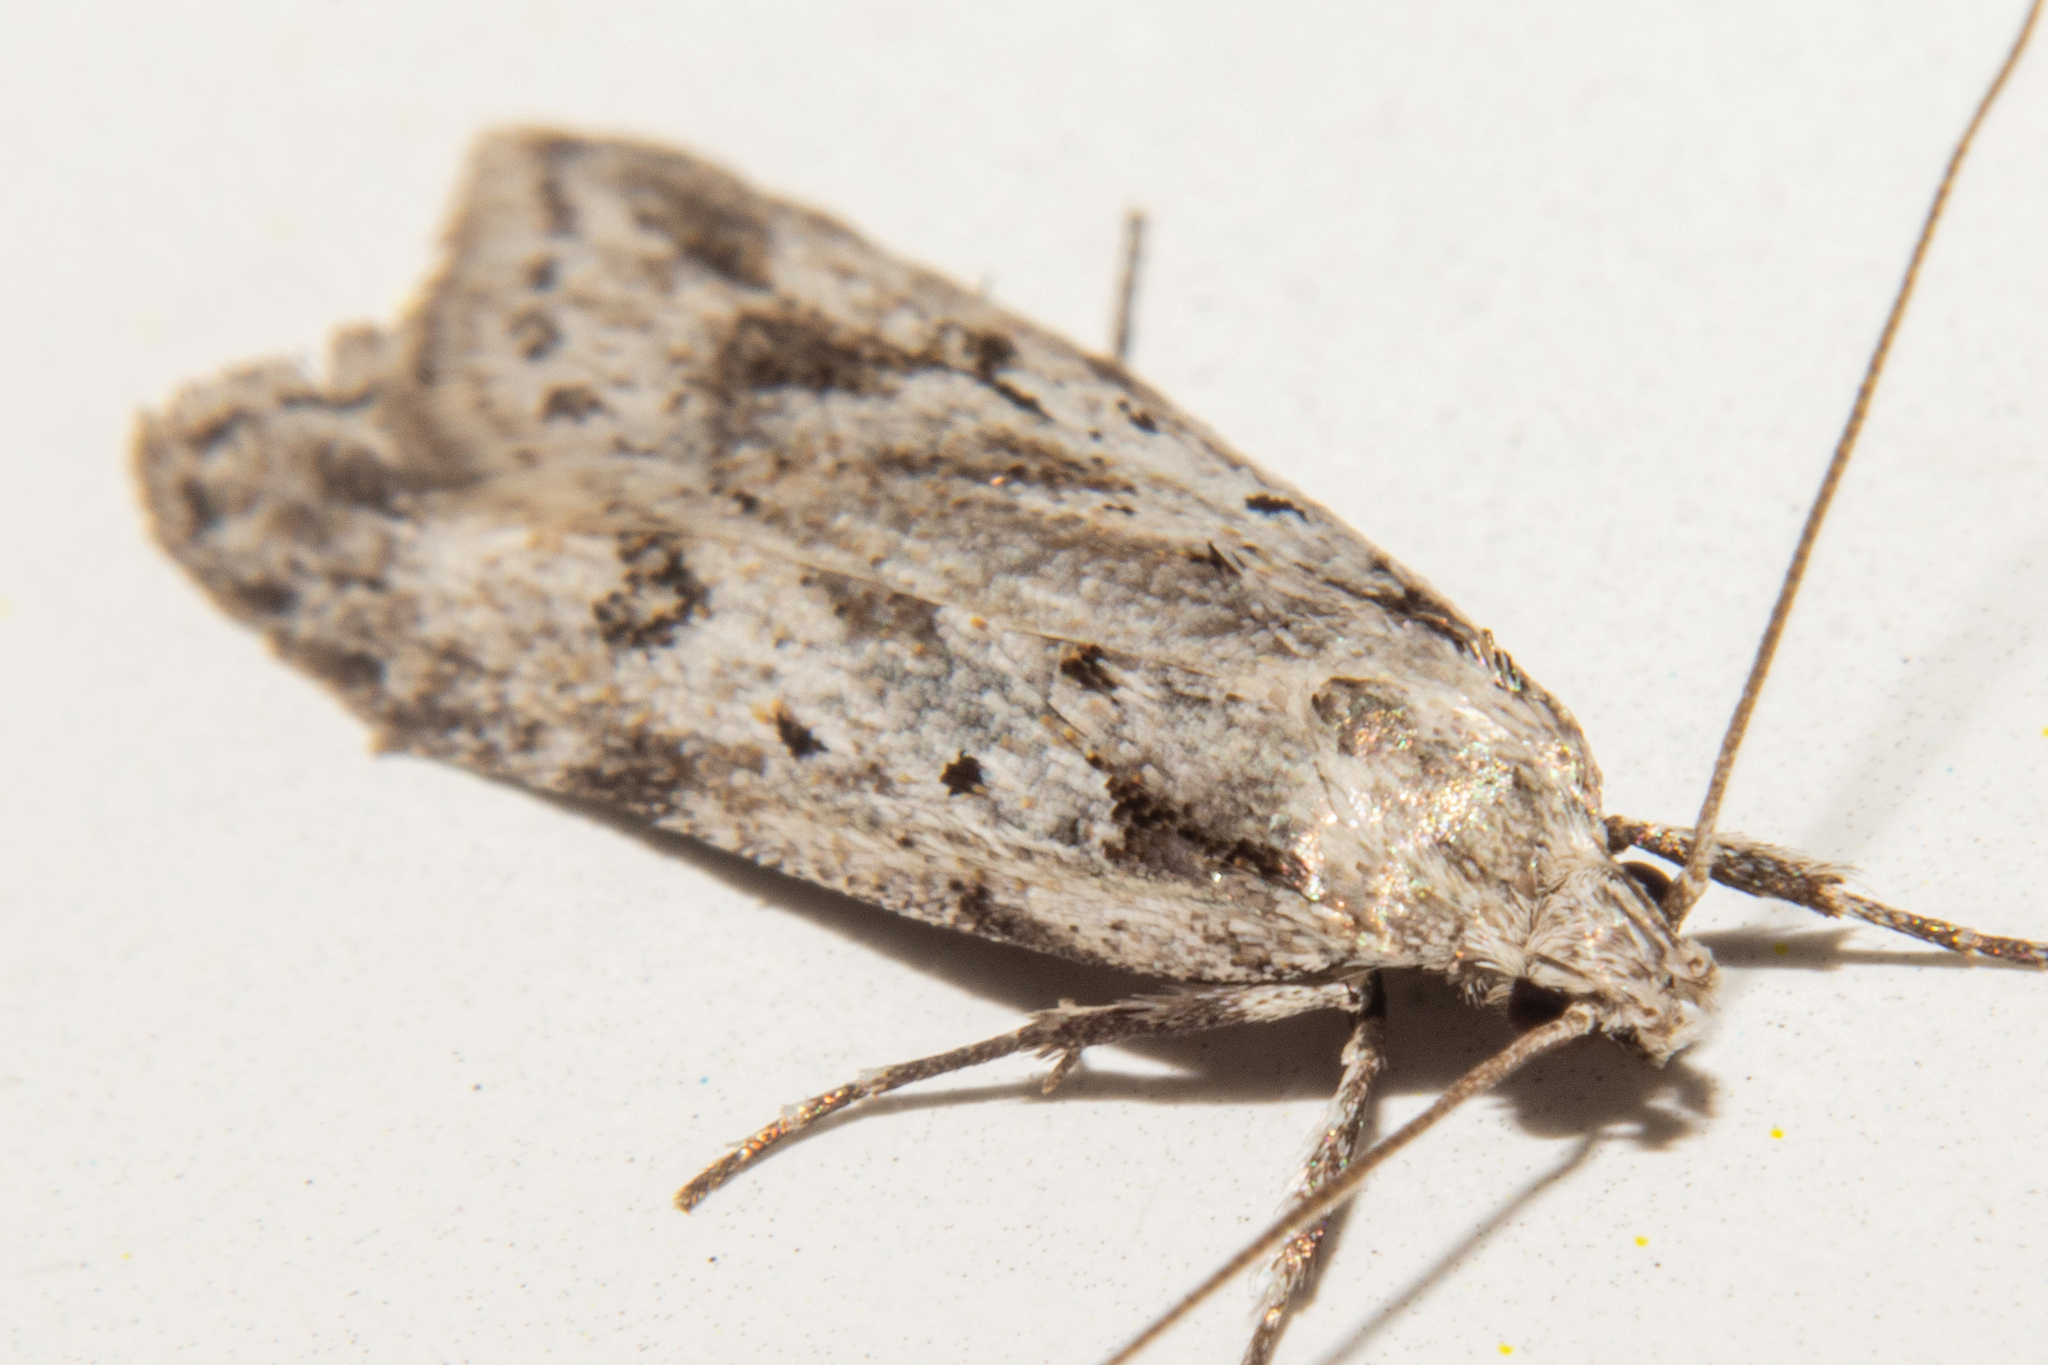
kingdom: Animalia
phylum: Arthropoda
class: Insecta
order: Lepidoptera
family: Oecophoridae
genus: Izatha
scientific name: Izatha psychra
